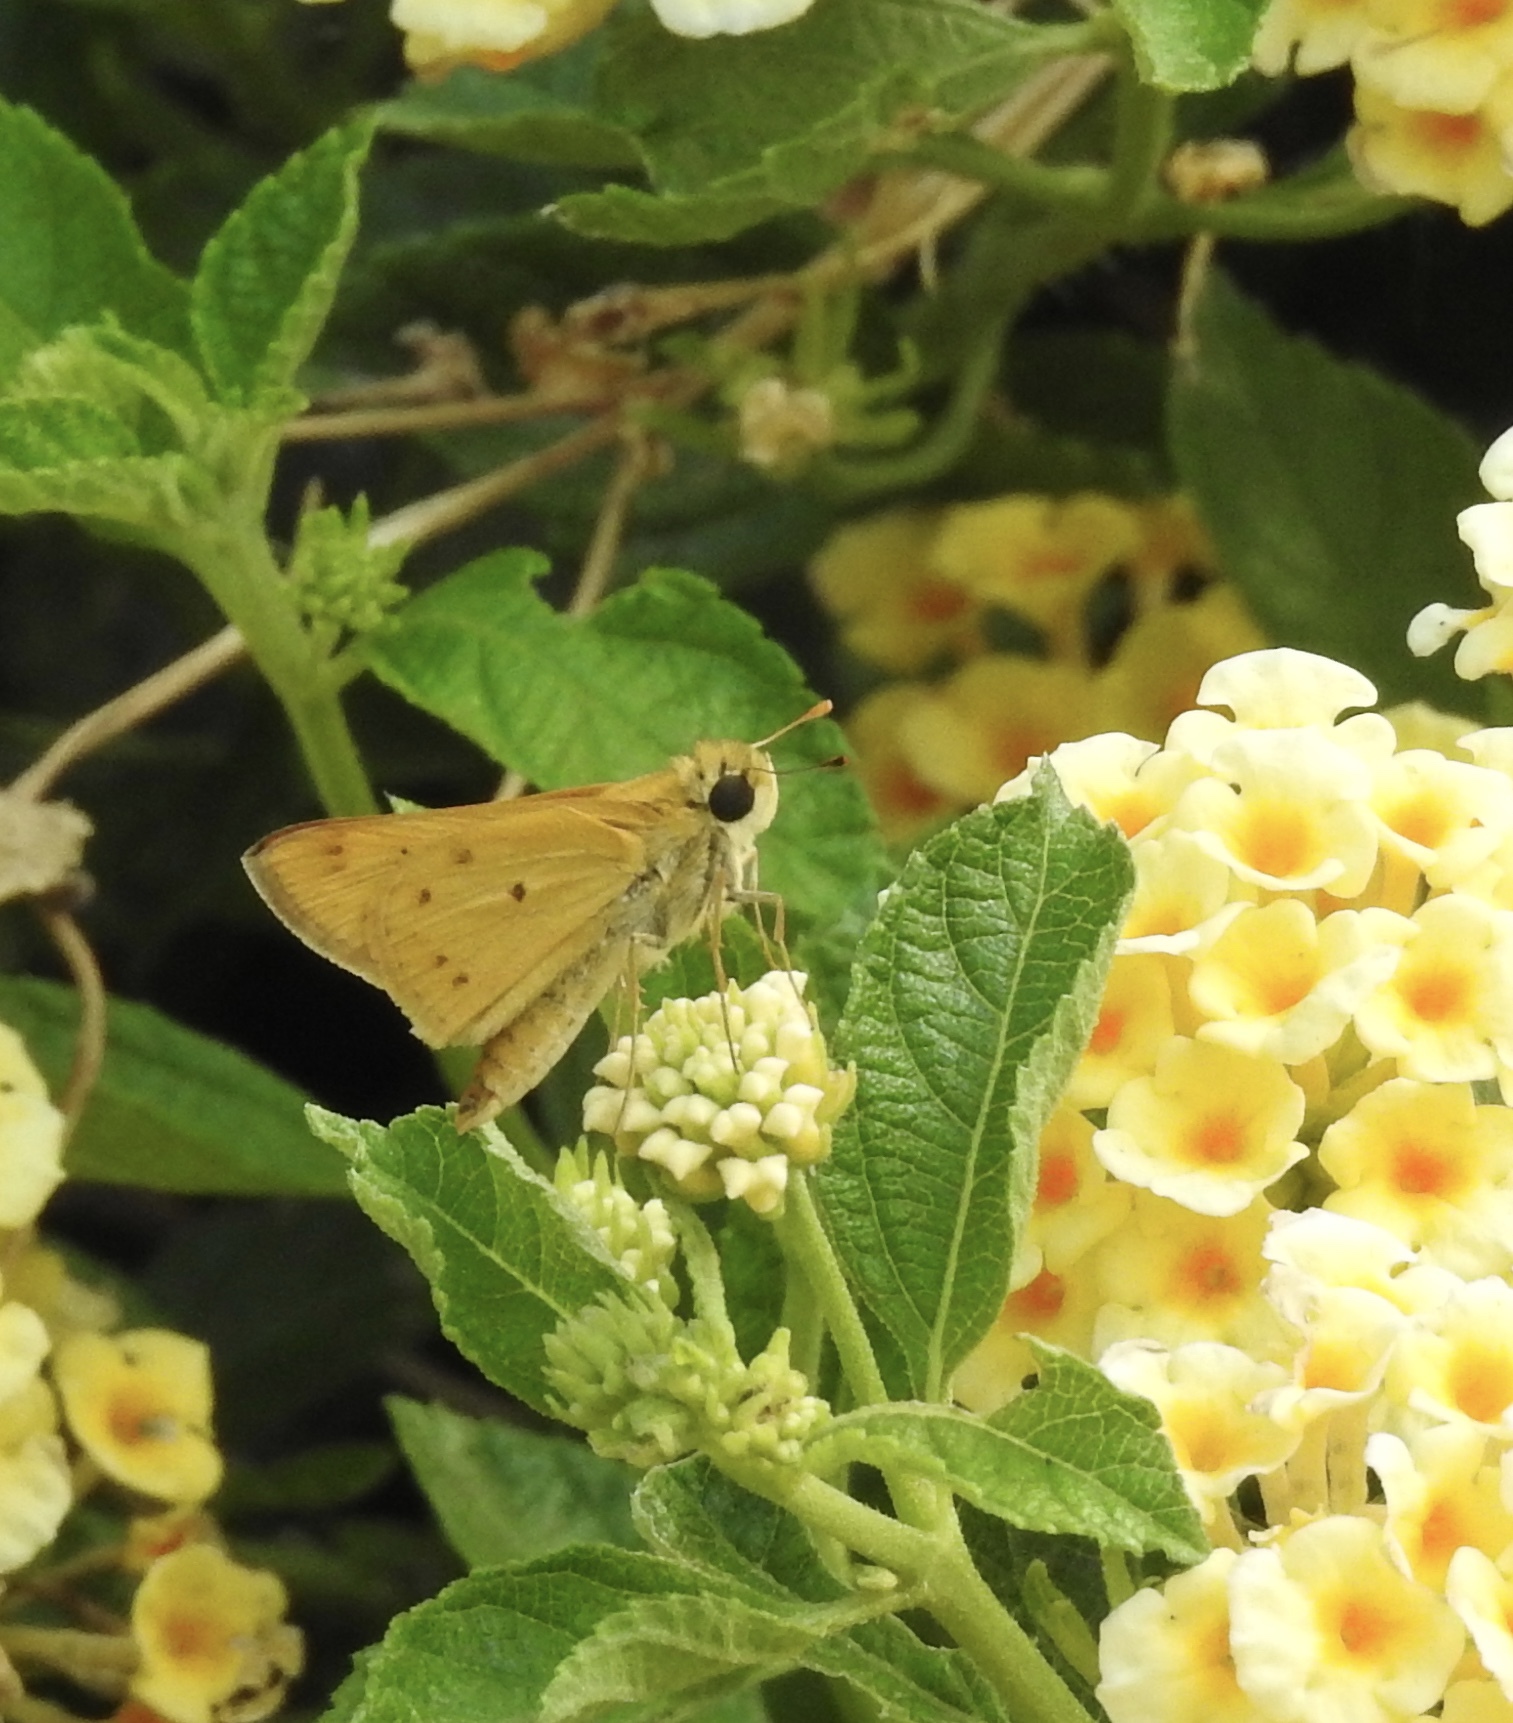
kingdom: Animalia
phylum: Arthropoda
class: Insecta
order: Lepidoptera
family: Hesperiidae
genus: Hylephila
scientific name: Hylephila phyleus
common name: Fiery skipper
